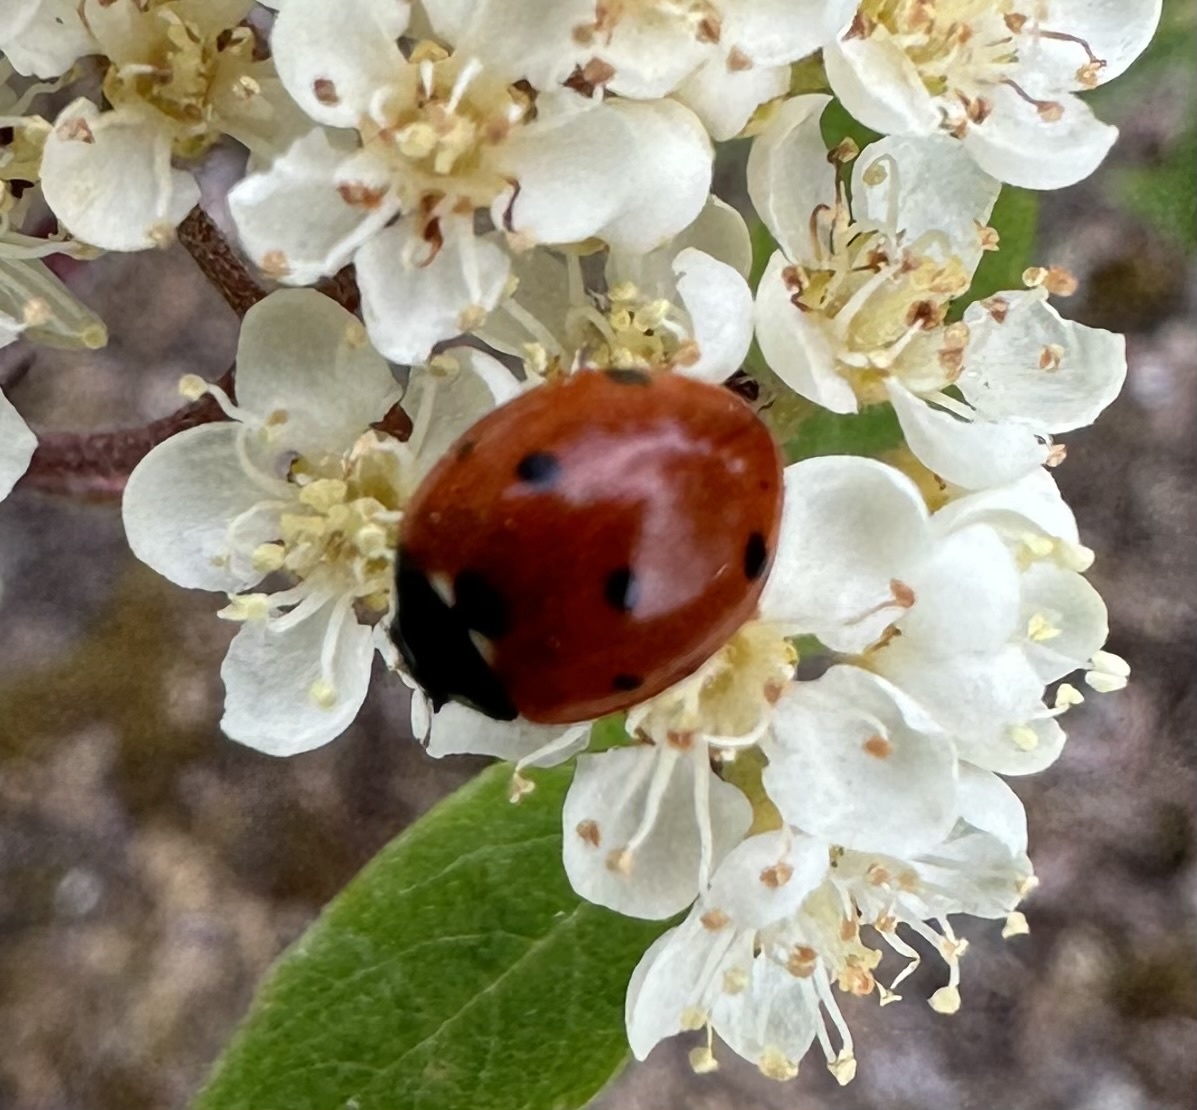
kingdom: Animalia
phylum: Arthropoda
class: Insecta
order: Coleoptera
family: Coccinellidae
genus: Coccinella
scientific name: Coccinella septempunctata
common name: Sevenspotted lady beetle
